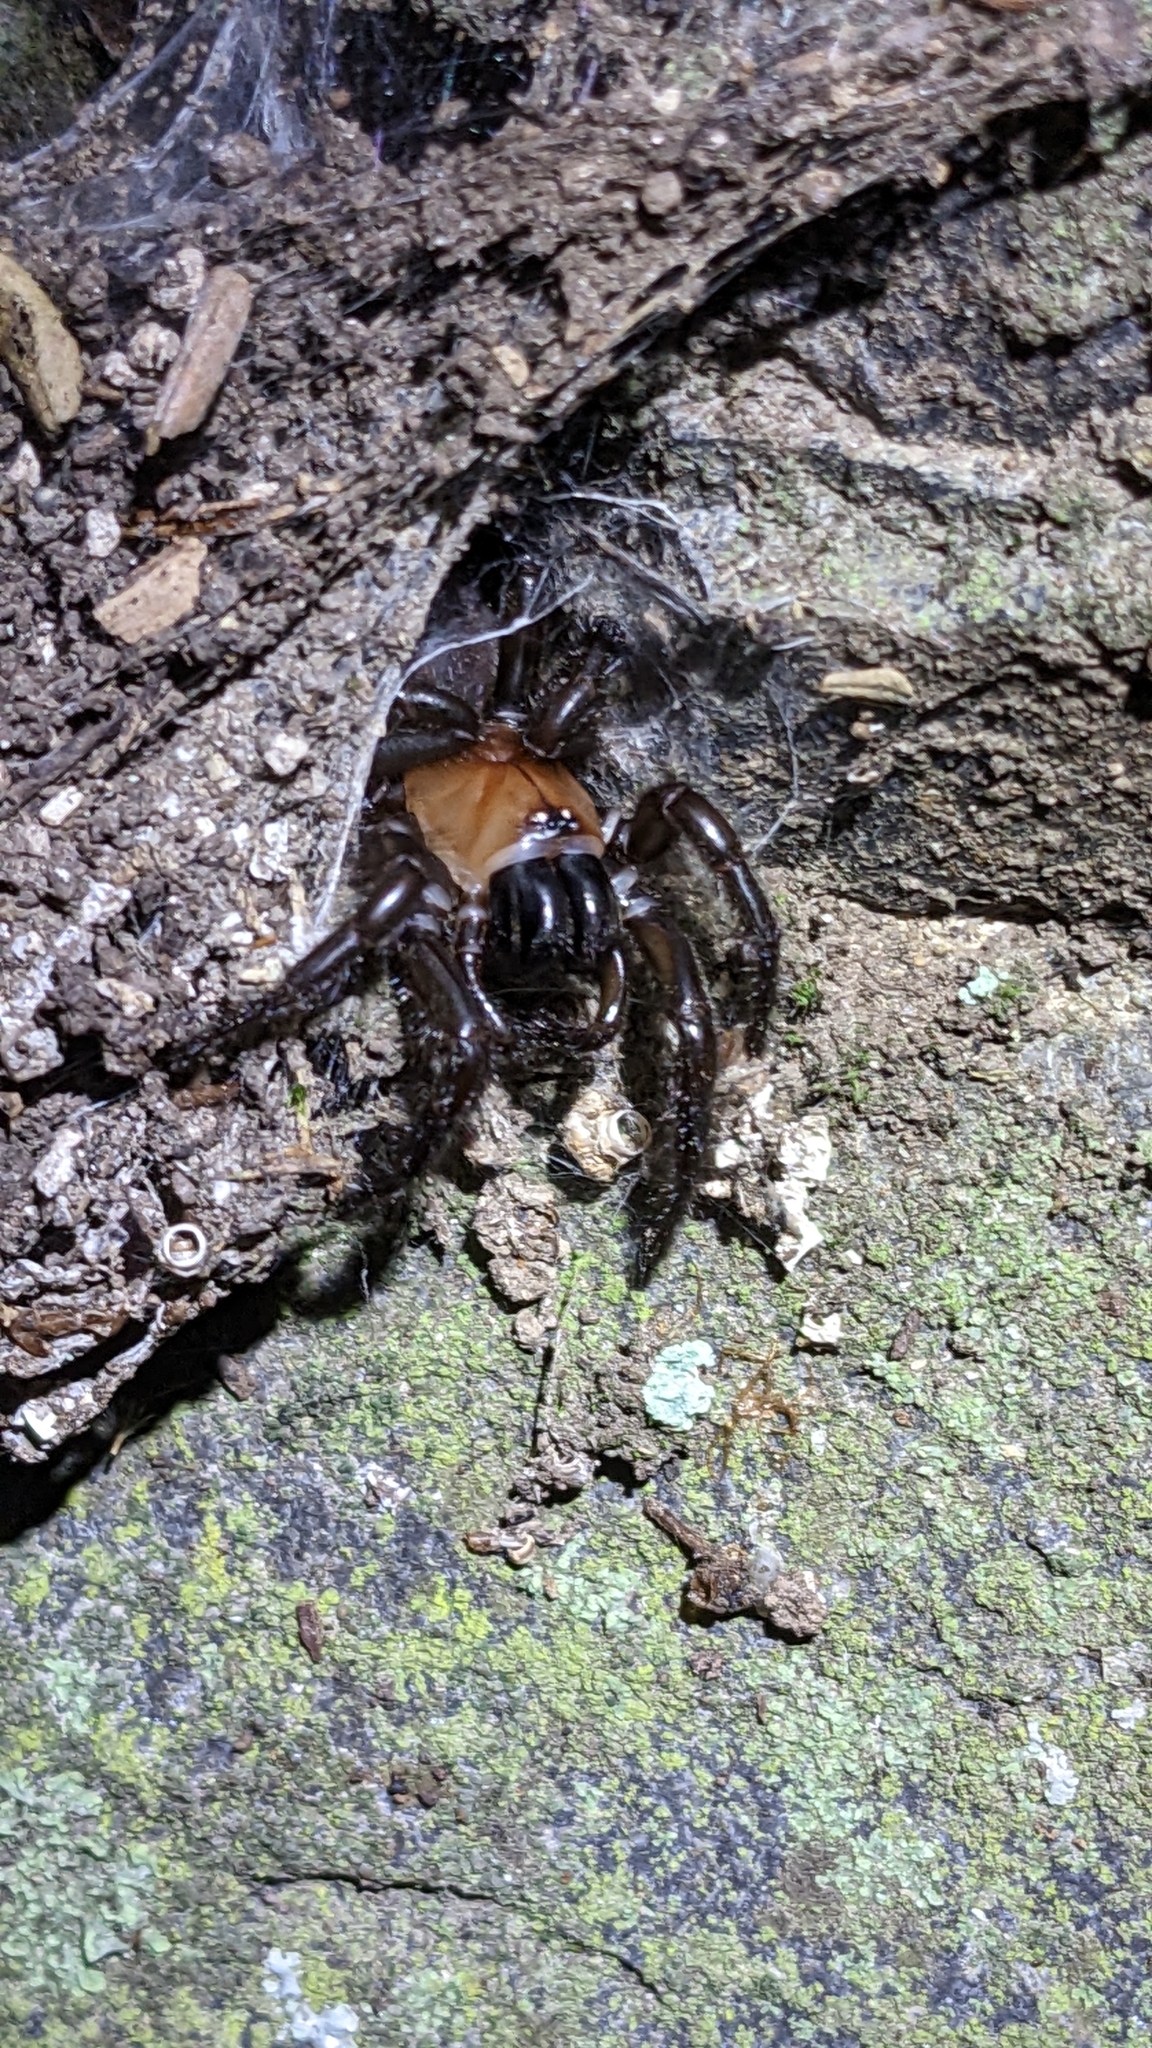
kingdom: Animalia
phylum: Arthropoda
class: Arachnida
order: Araneae
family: Porrhothelidae
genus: Porrhothele
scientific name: Porrhothele antipodiana
